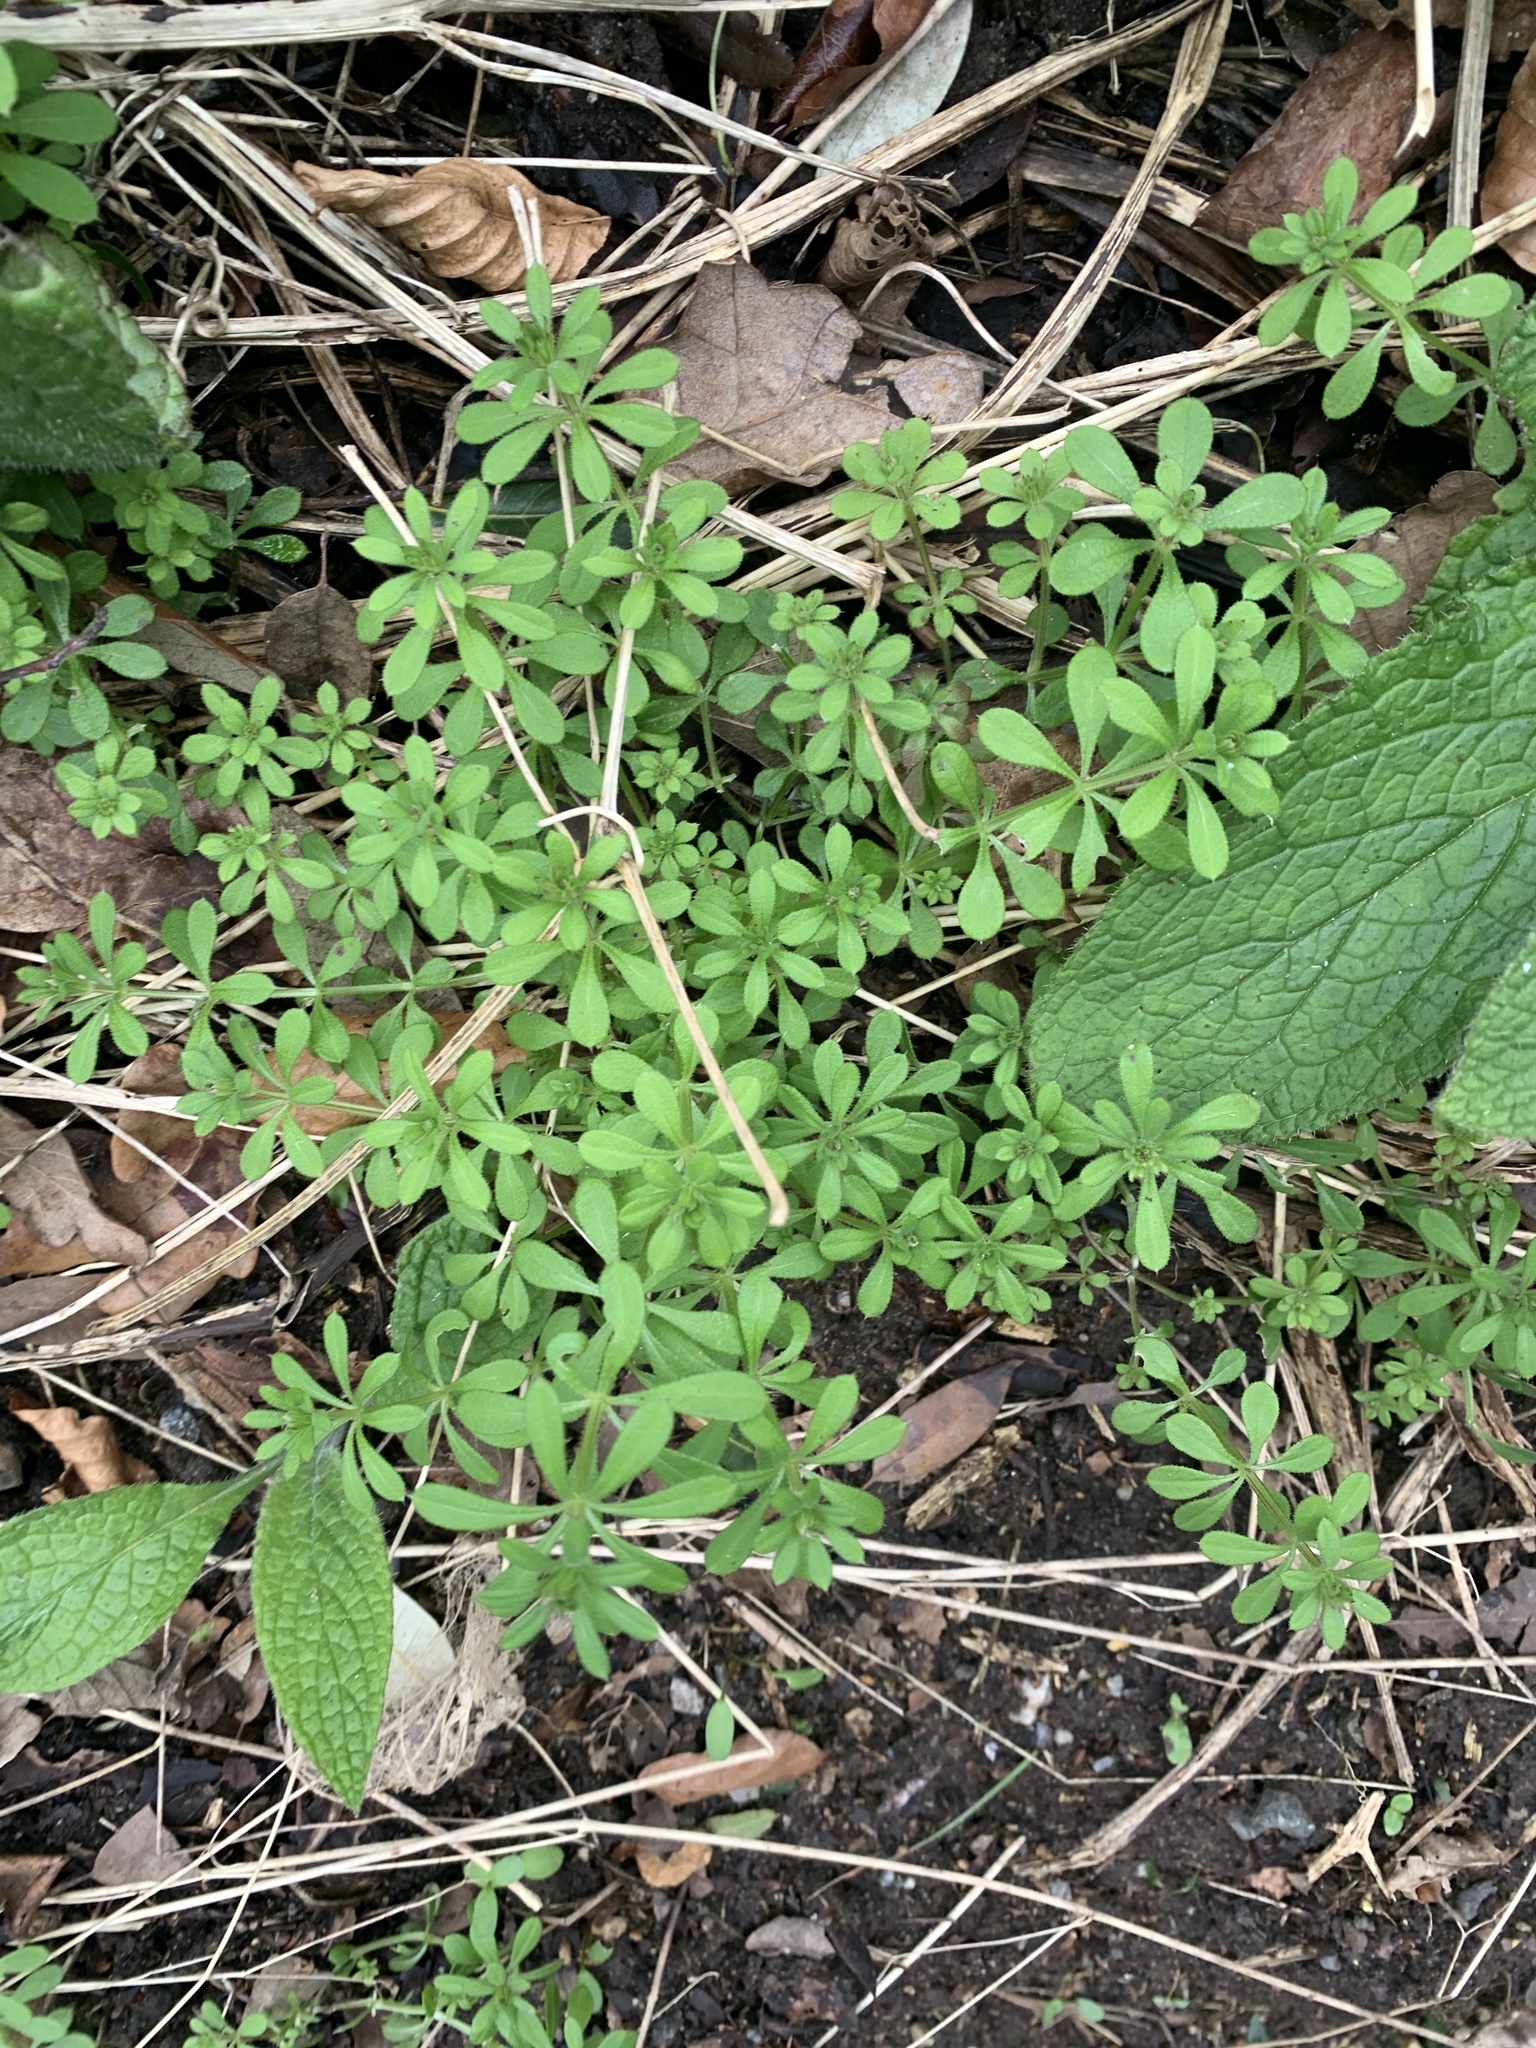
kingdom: Plantae
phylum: Tracheophyta
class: Magnoliopsida
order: Gentianales
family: Rubiaceae
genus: Galium
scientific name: Galium aparine
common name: Cleavers
